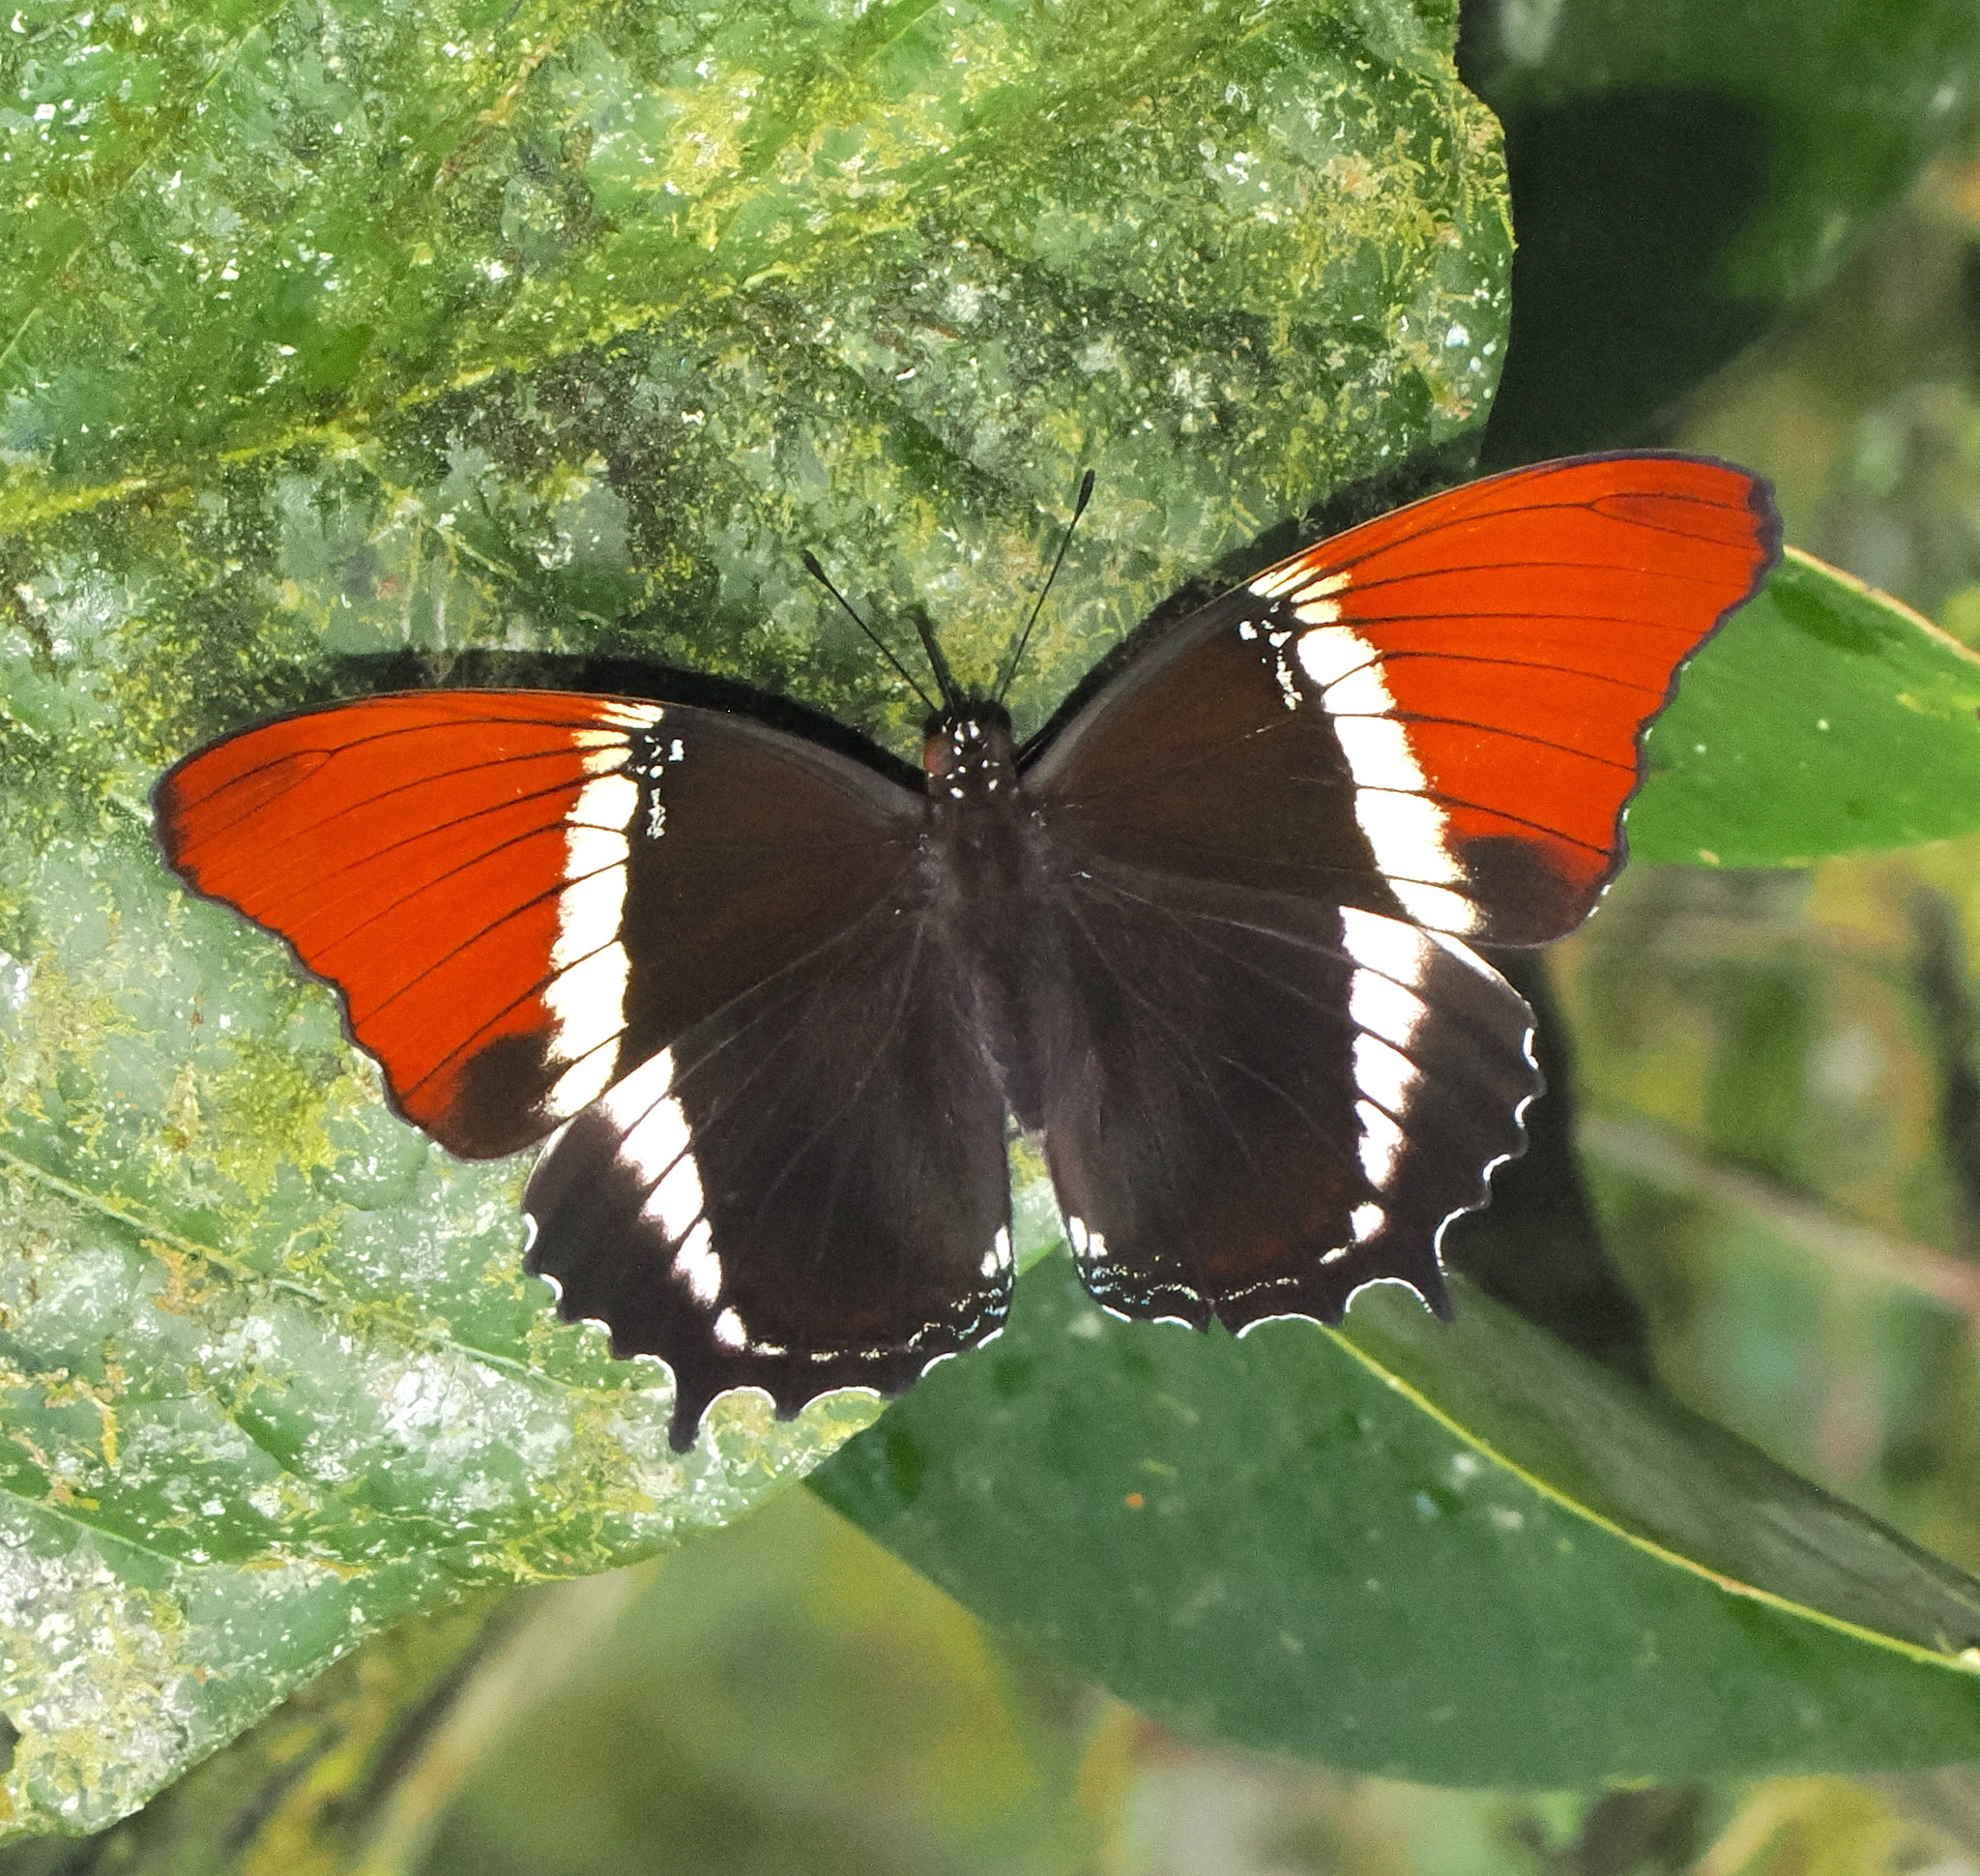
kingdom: Animalia
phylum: Arthropoda
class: Insecta
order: Lepidoptera
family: Nymphalidae
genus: Siproeta
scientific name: Siproeta epaphus
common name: Rusty-tipped page
